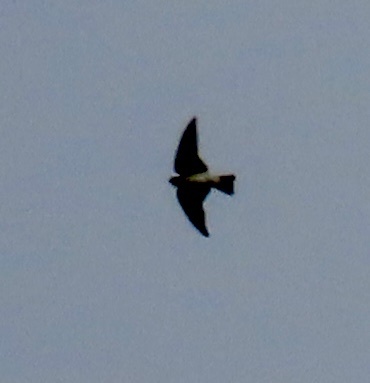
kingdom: Animalia
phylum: Chordata
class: Aves
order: Passeriformes
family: Hirundinidae
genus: Petrochelidon
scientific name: Petrochelidon pyrrhonota
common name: American cliff swallow
